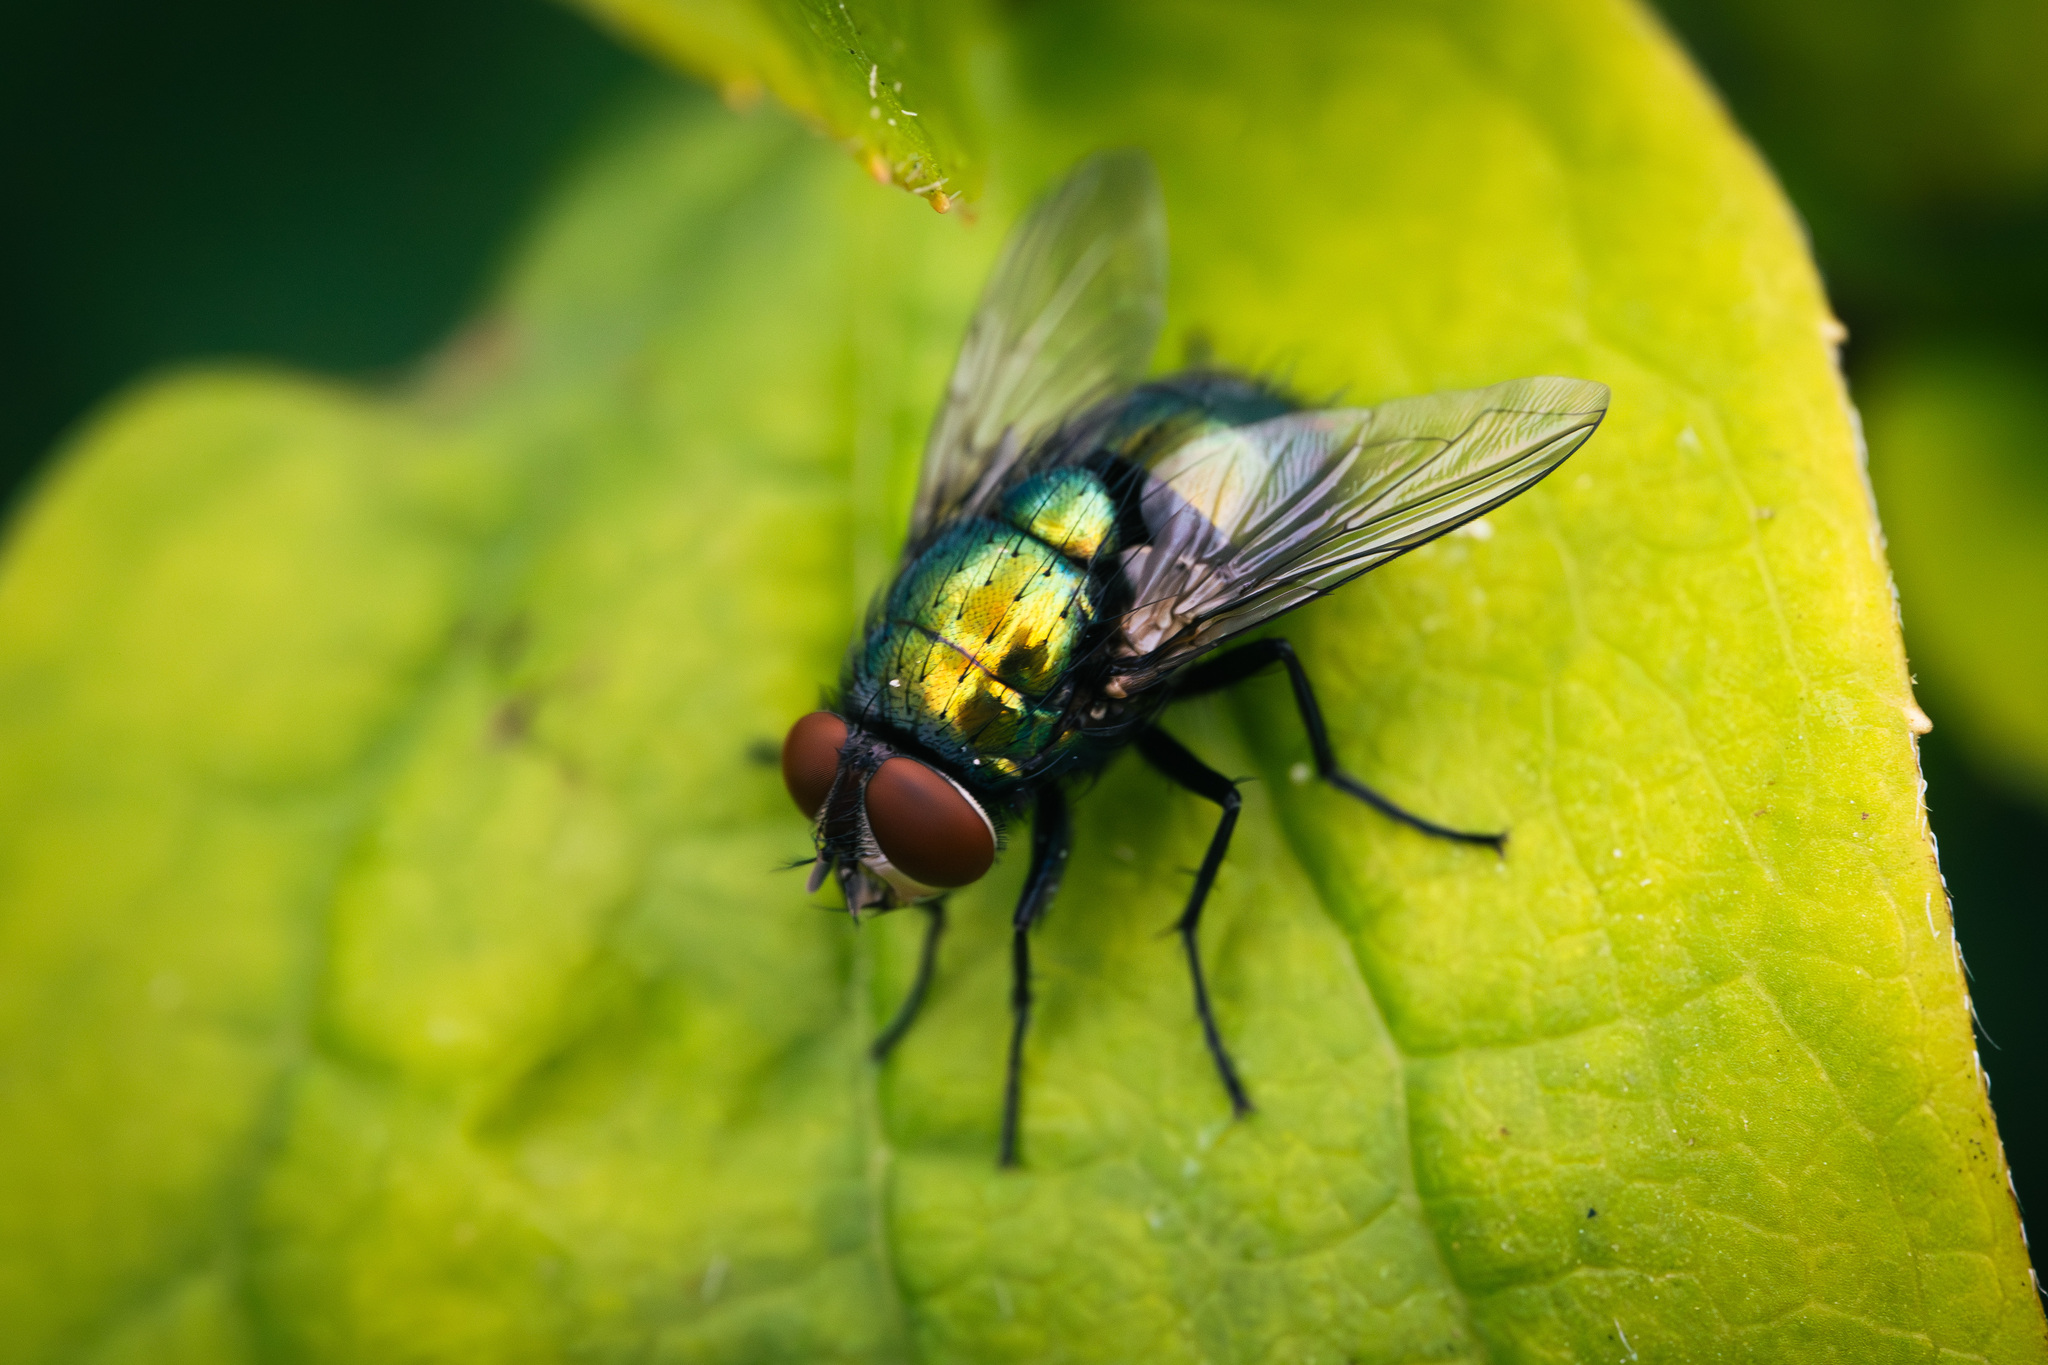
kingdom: Animalia
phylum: Arthropoda
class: Insecta
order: Diptera
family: Calliphoridae
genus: Lucilia
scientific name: Lucilia sericata
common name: Blow fly
